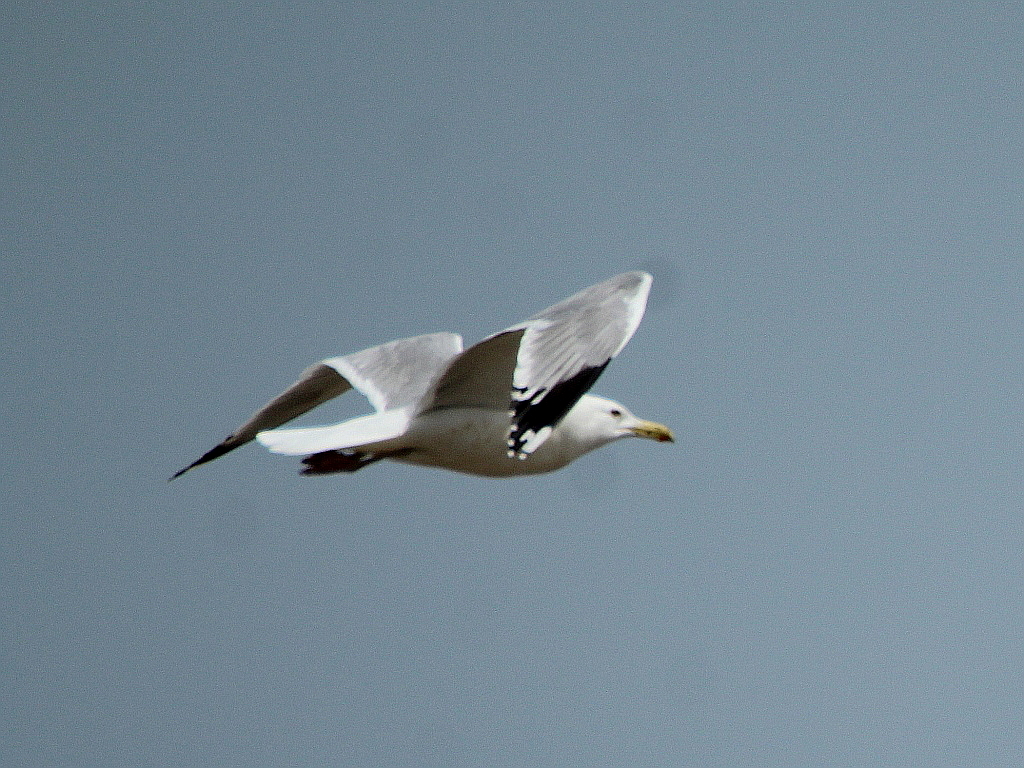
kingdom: Animalia
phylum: Chordata
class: Aves
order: Charadriiformes
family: Laridae
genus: Larus
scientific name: Larus cachinnans
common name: Caspian gull
